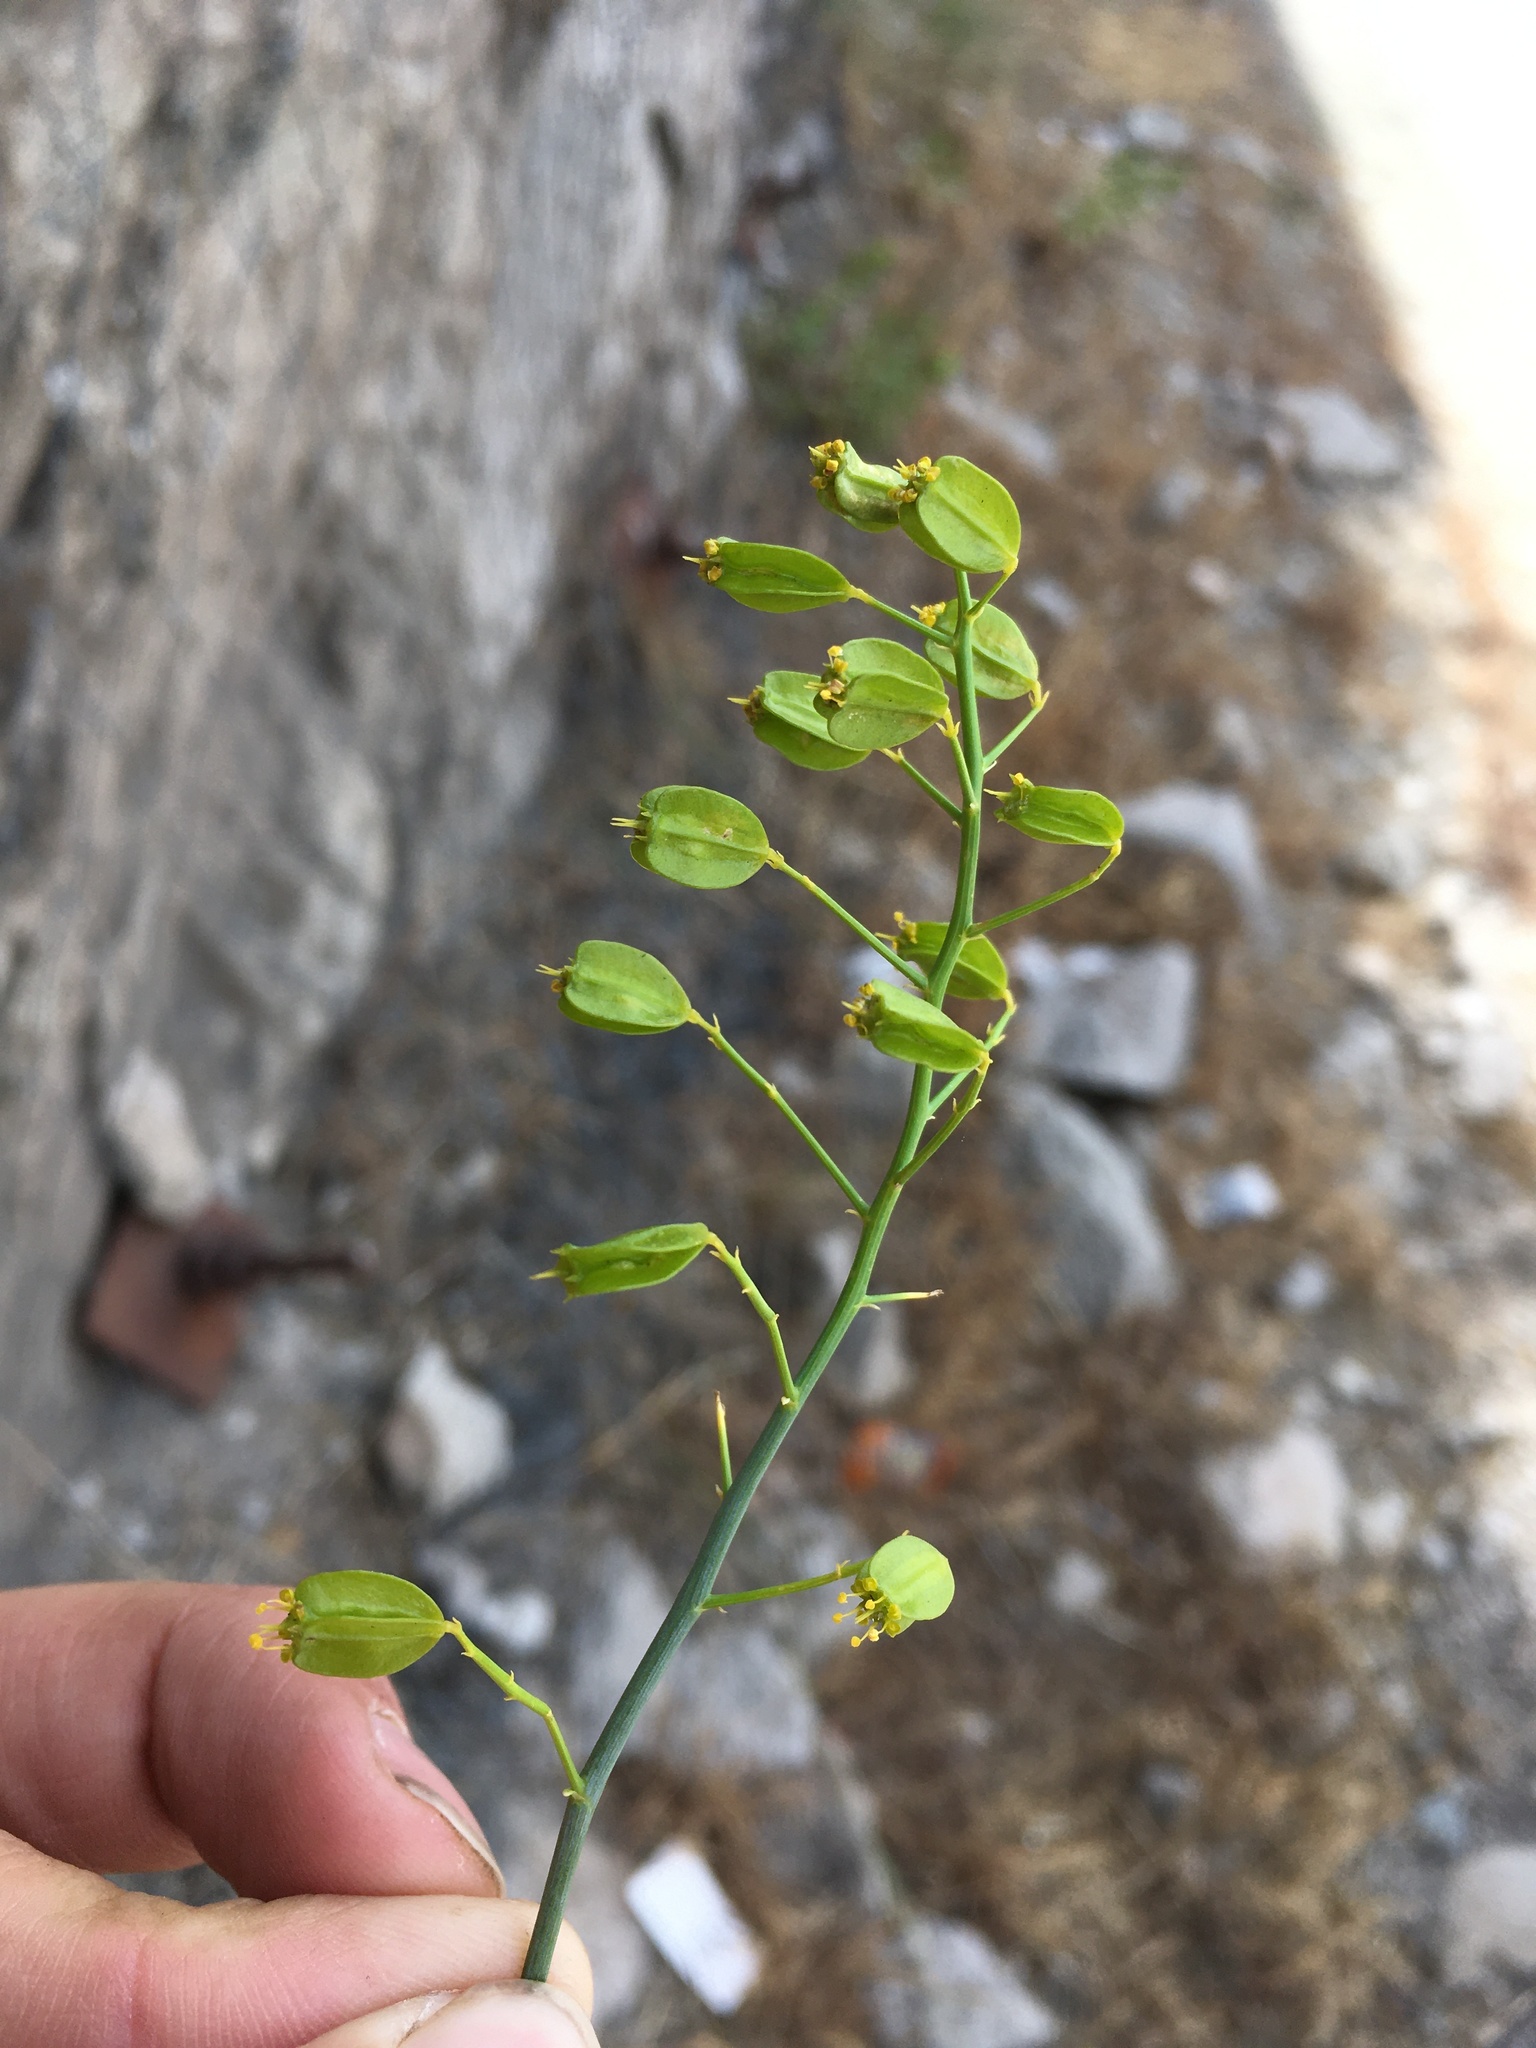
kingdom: Plantae
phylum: Tracheophyta
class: Magnoliopsida
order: Apiales
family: Apiaceae
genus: Gymnophyton
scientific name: Gymnophyton isatidicarpum
